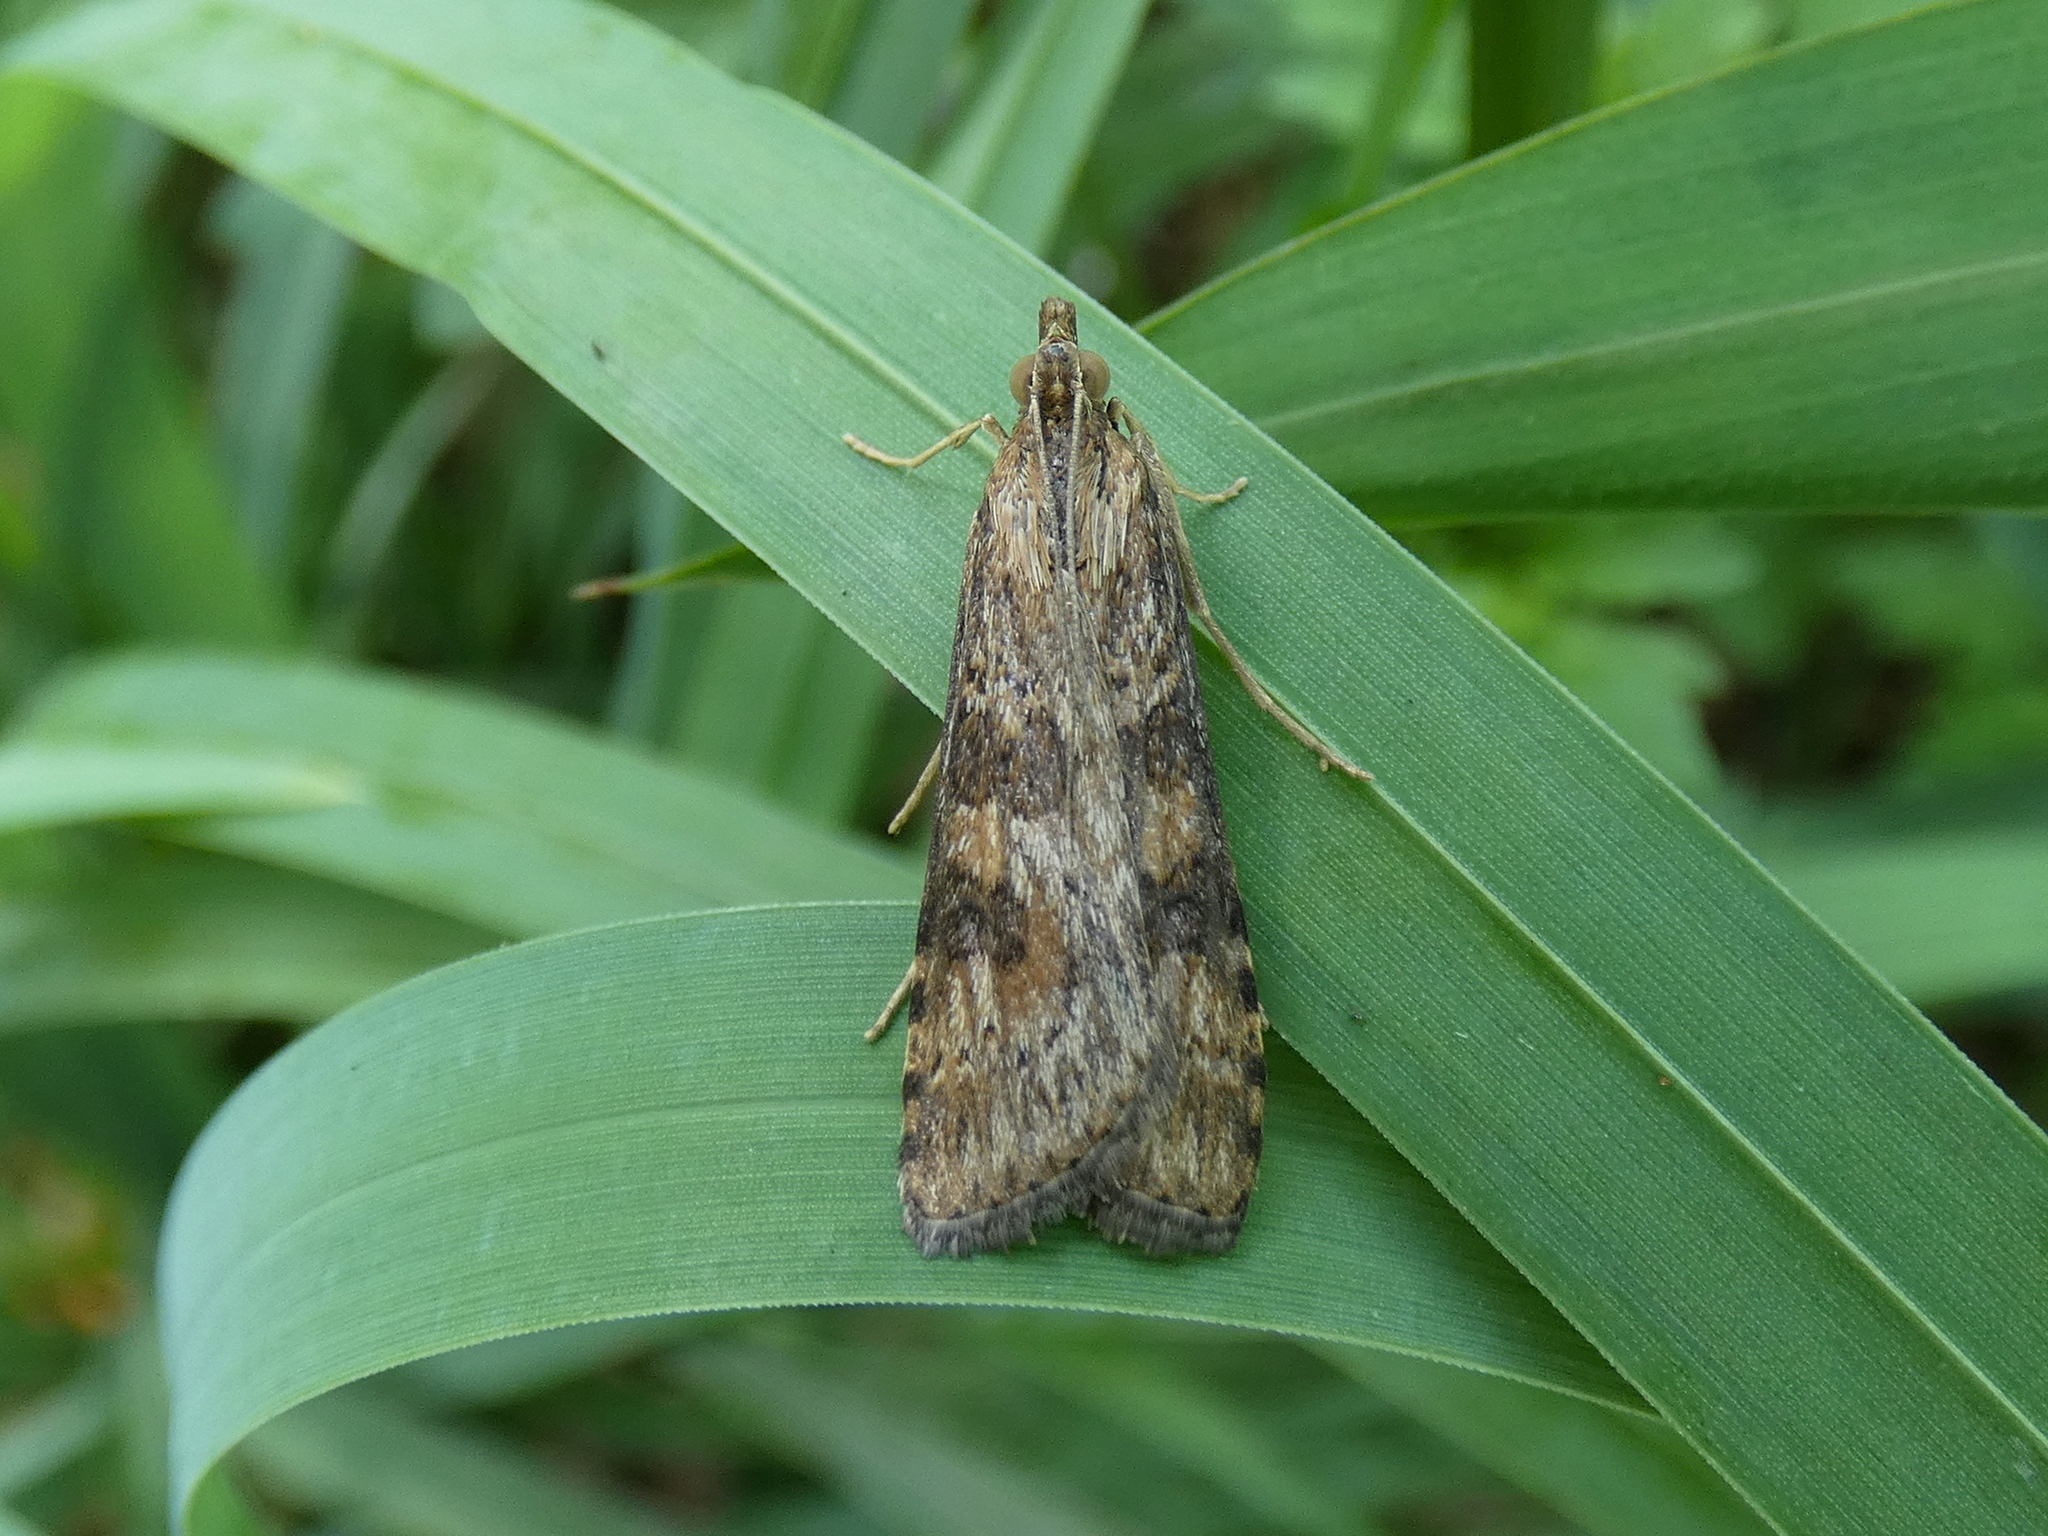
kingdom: Animalia
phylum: Arthropoda
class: Insecta
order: Lepidoptera
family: Crambidae
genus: Nomophila
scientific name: Nomophila nearctica
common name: American rush veneer
